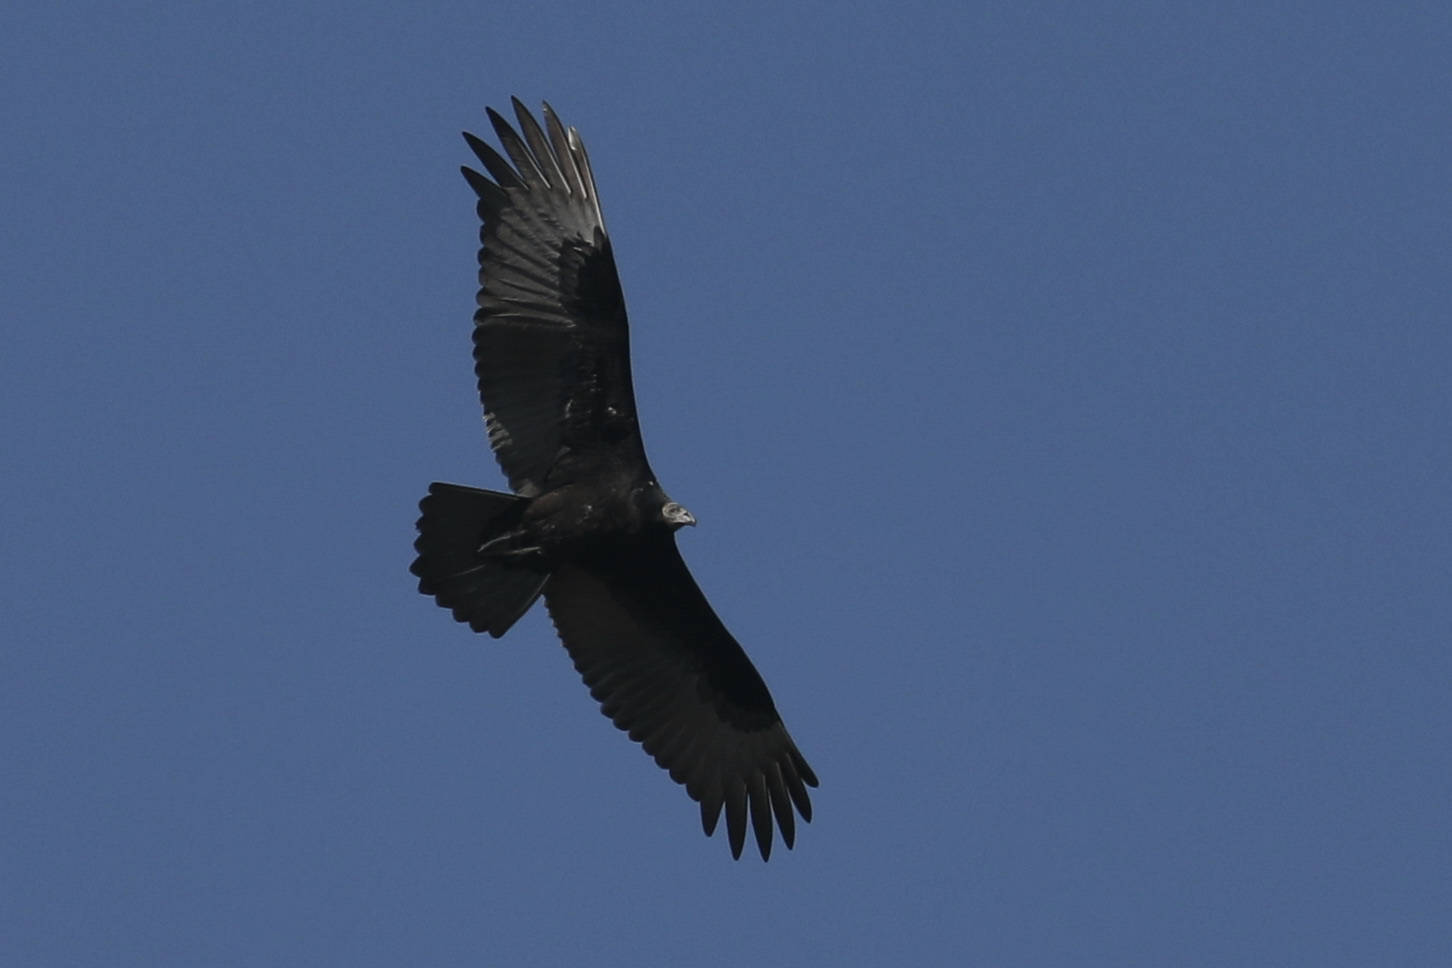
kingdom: Animalia
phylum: Chordata
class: Aves
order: Accipitriformes
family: Cathartidae
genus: Cathartes
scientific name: Cathartes aura
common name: Turkey vulture
